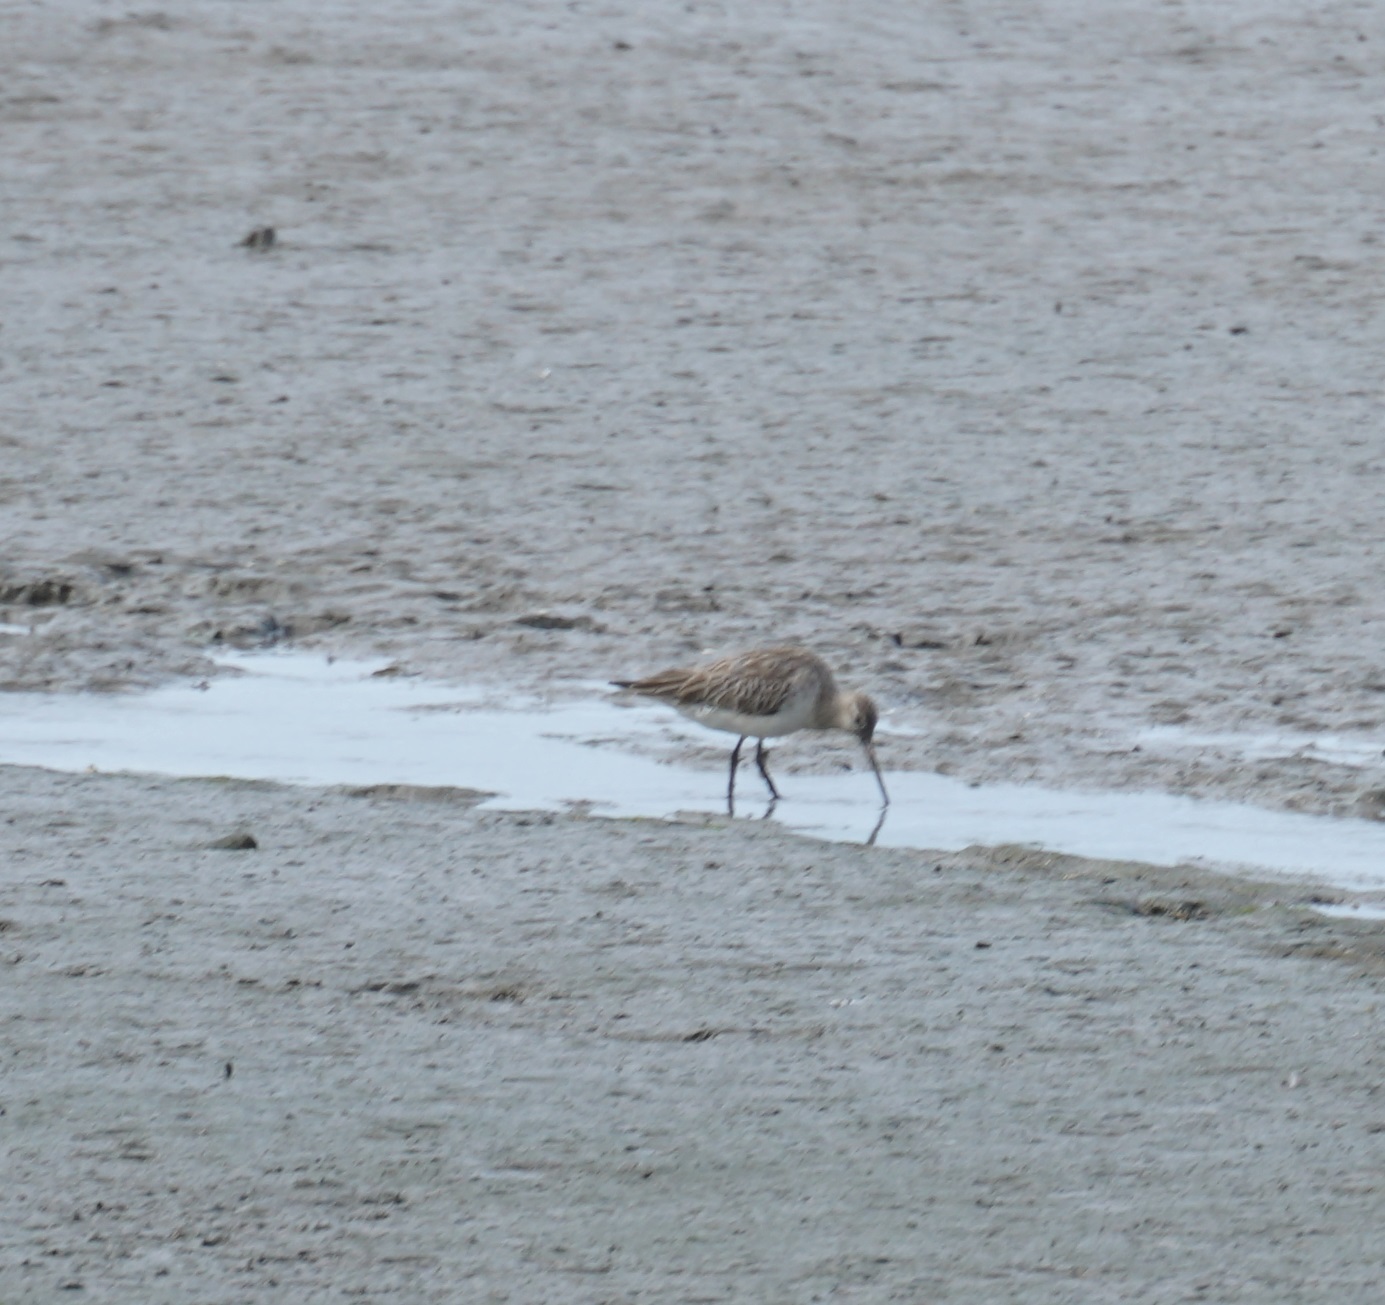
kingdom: Animalia
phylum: Chordata
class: Aves
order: Charadriiformes
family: Scolopacidae
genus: Limosa
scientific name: Limosa lapponica
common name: Bar-tailed godwit
